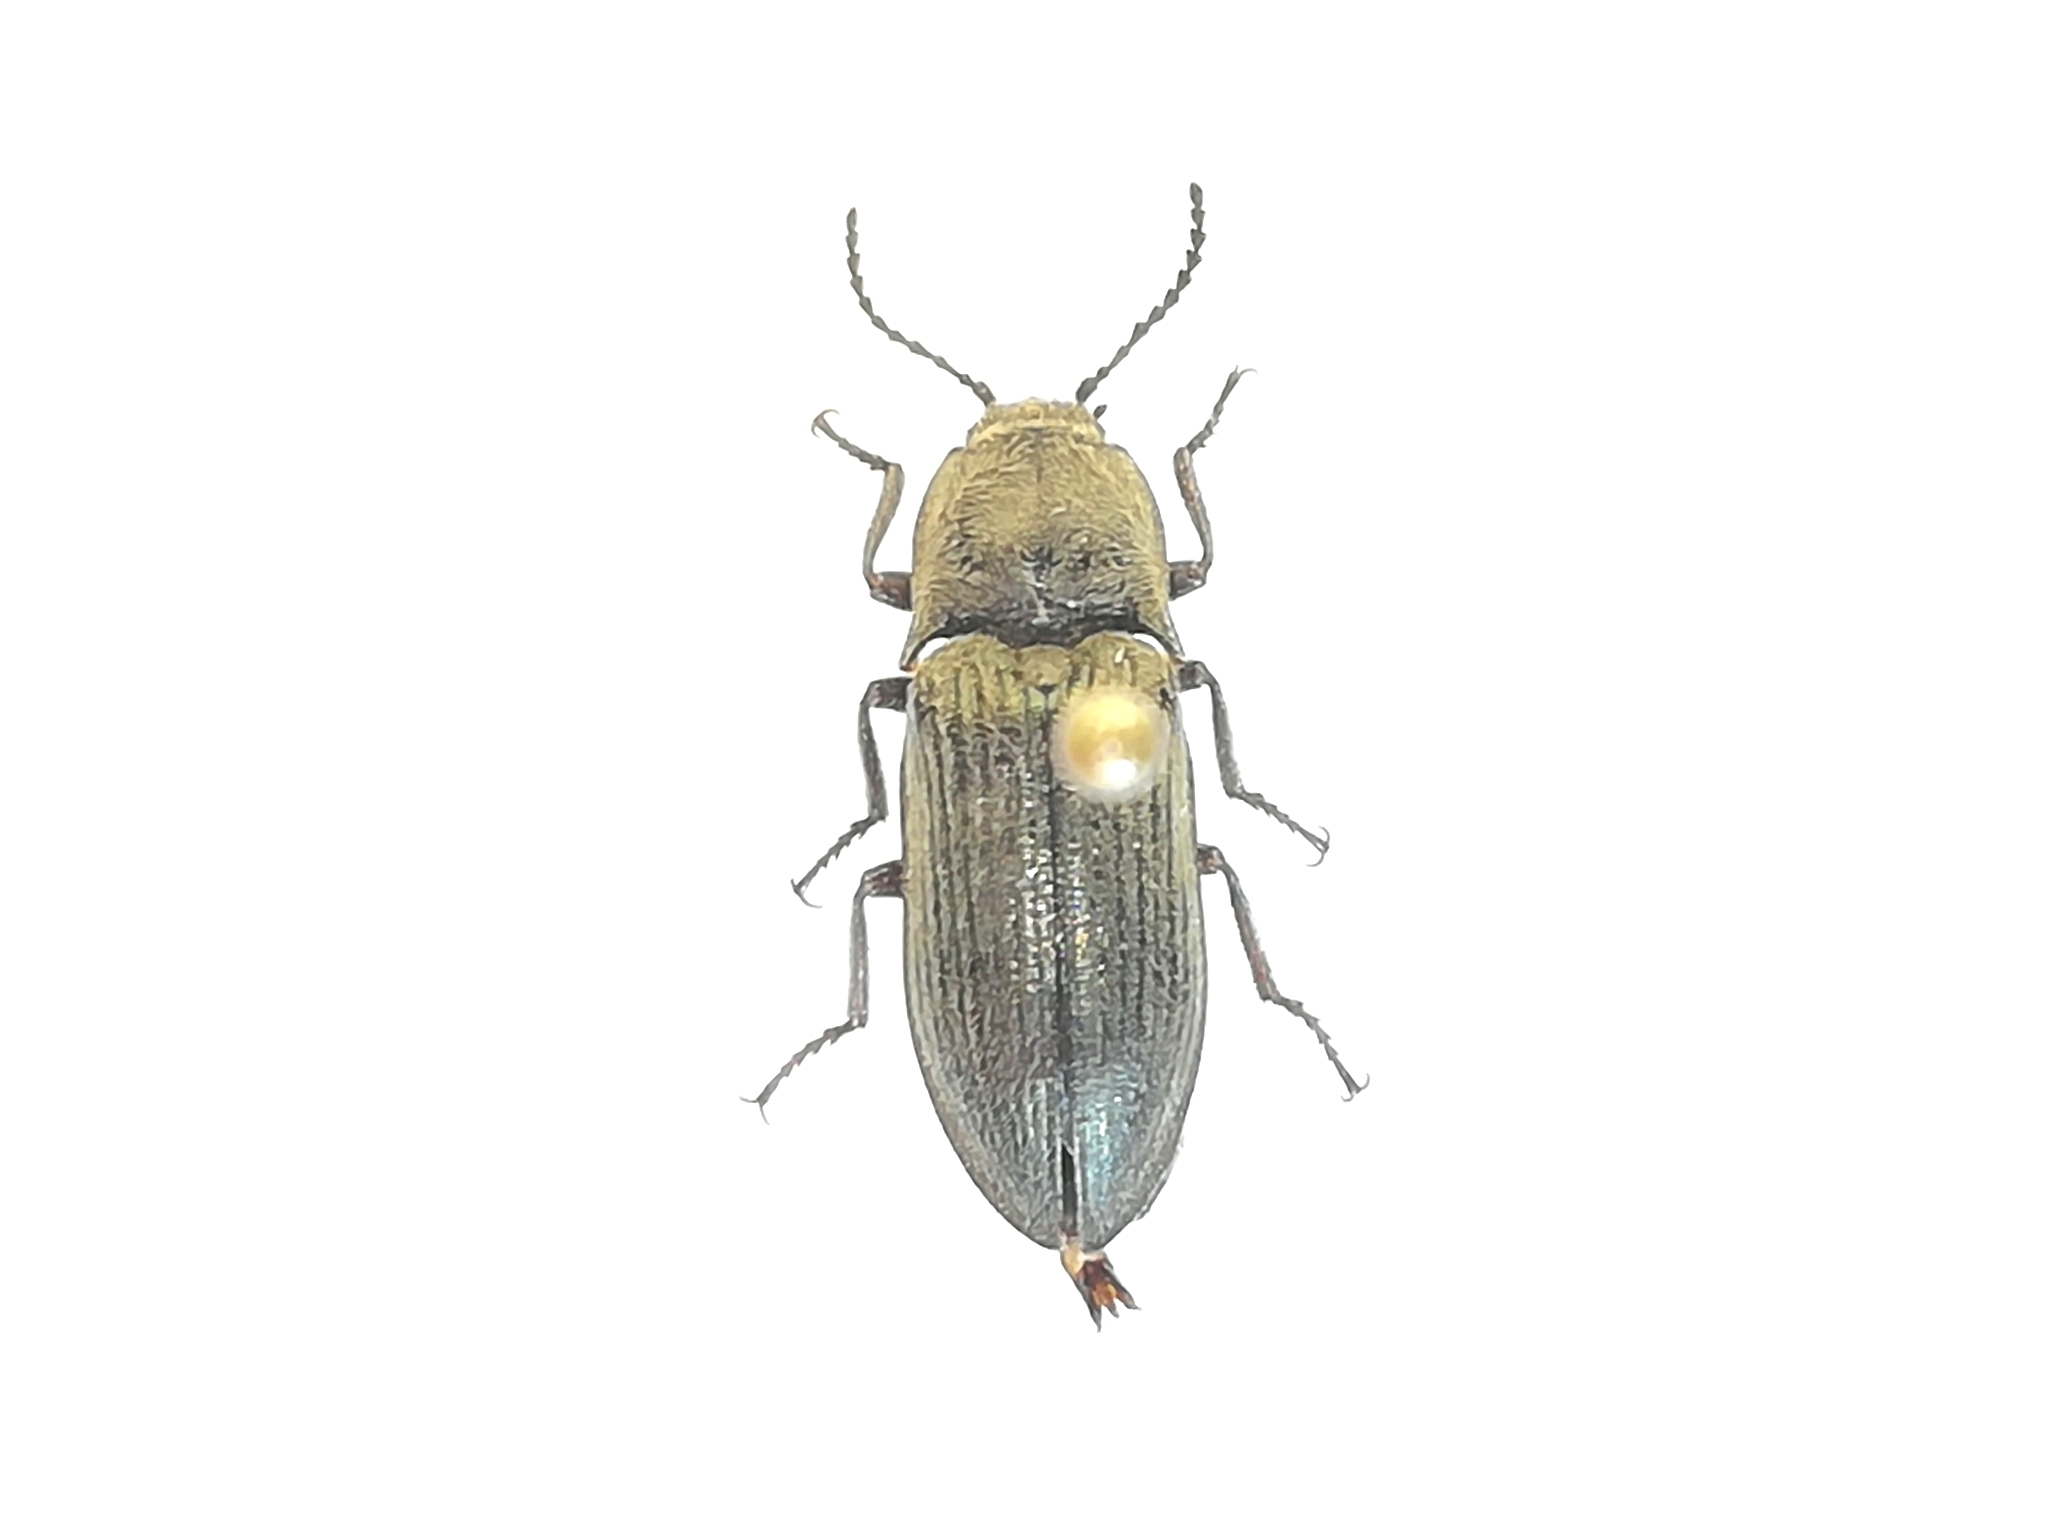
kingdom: Animalia
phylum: Arthropoda
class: Insecta
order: Coleoptera
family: Elateridae
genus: Selatosomus
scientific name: Selatosomus latus
